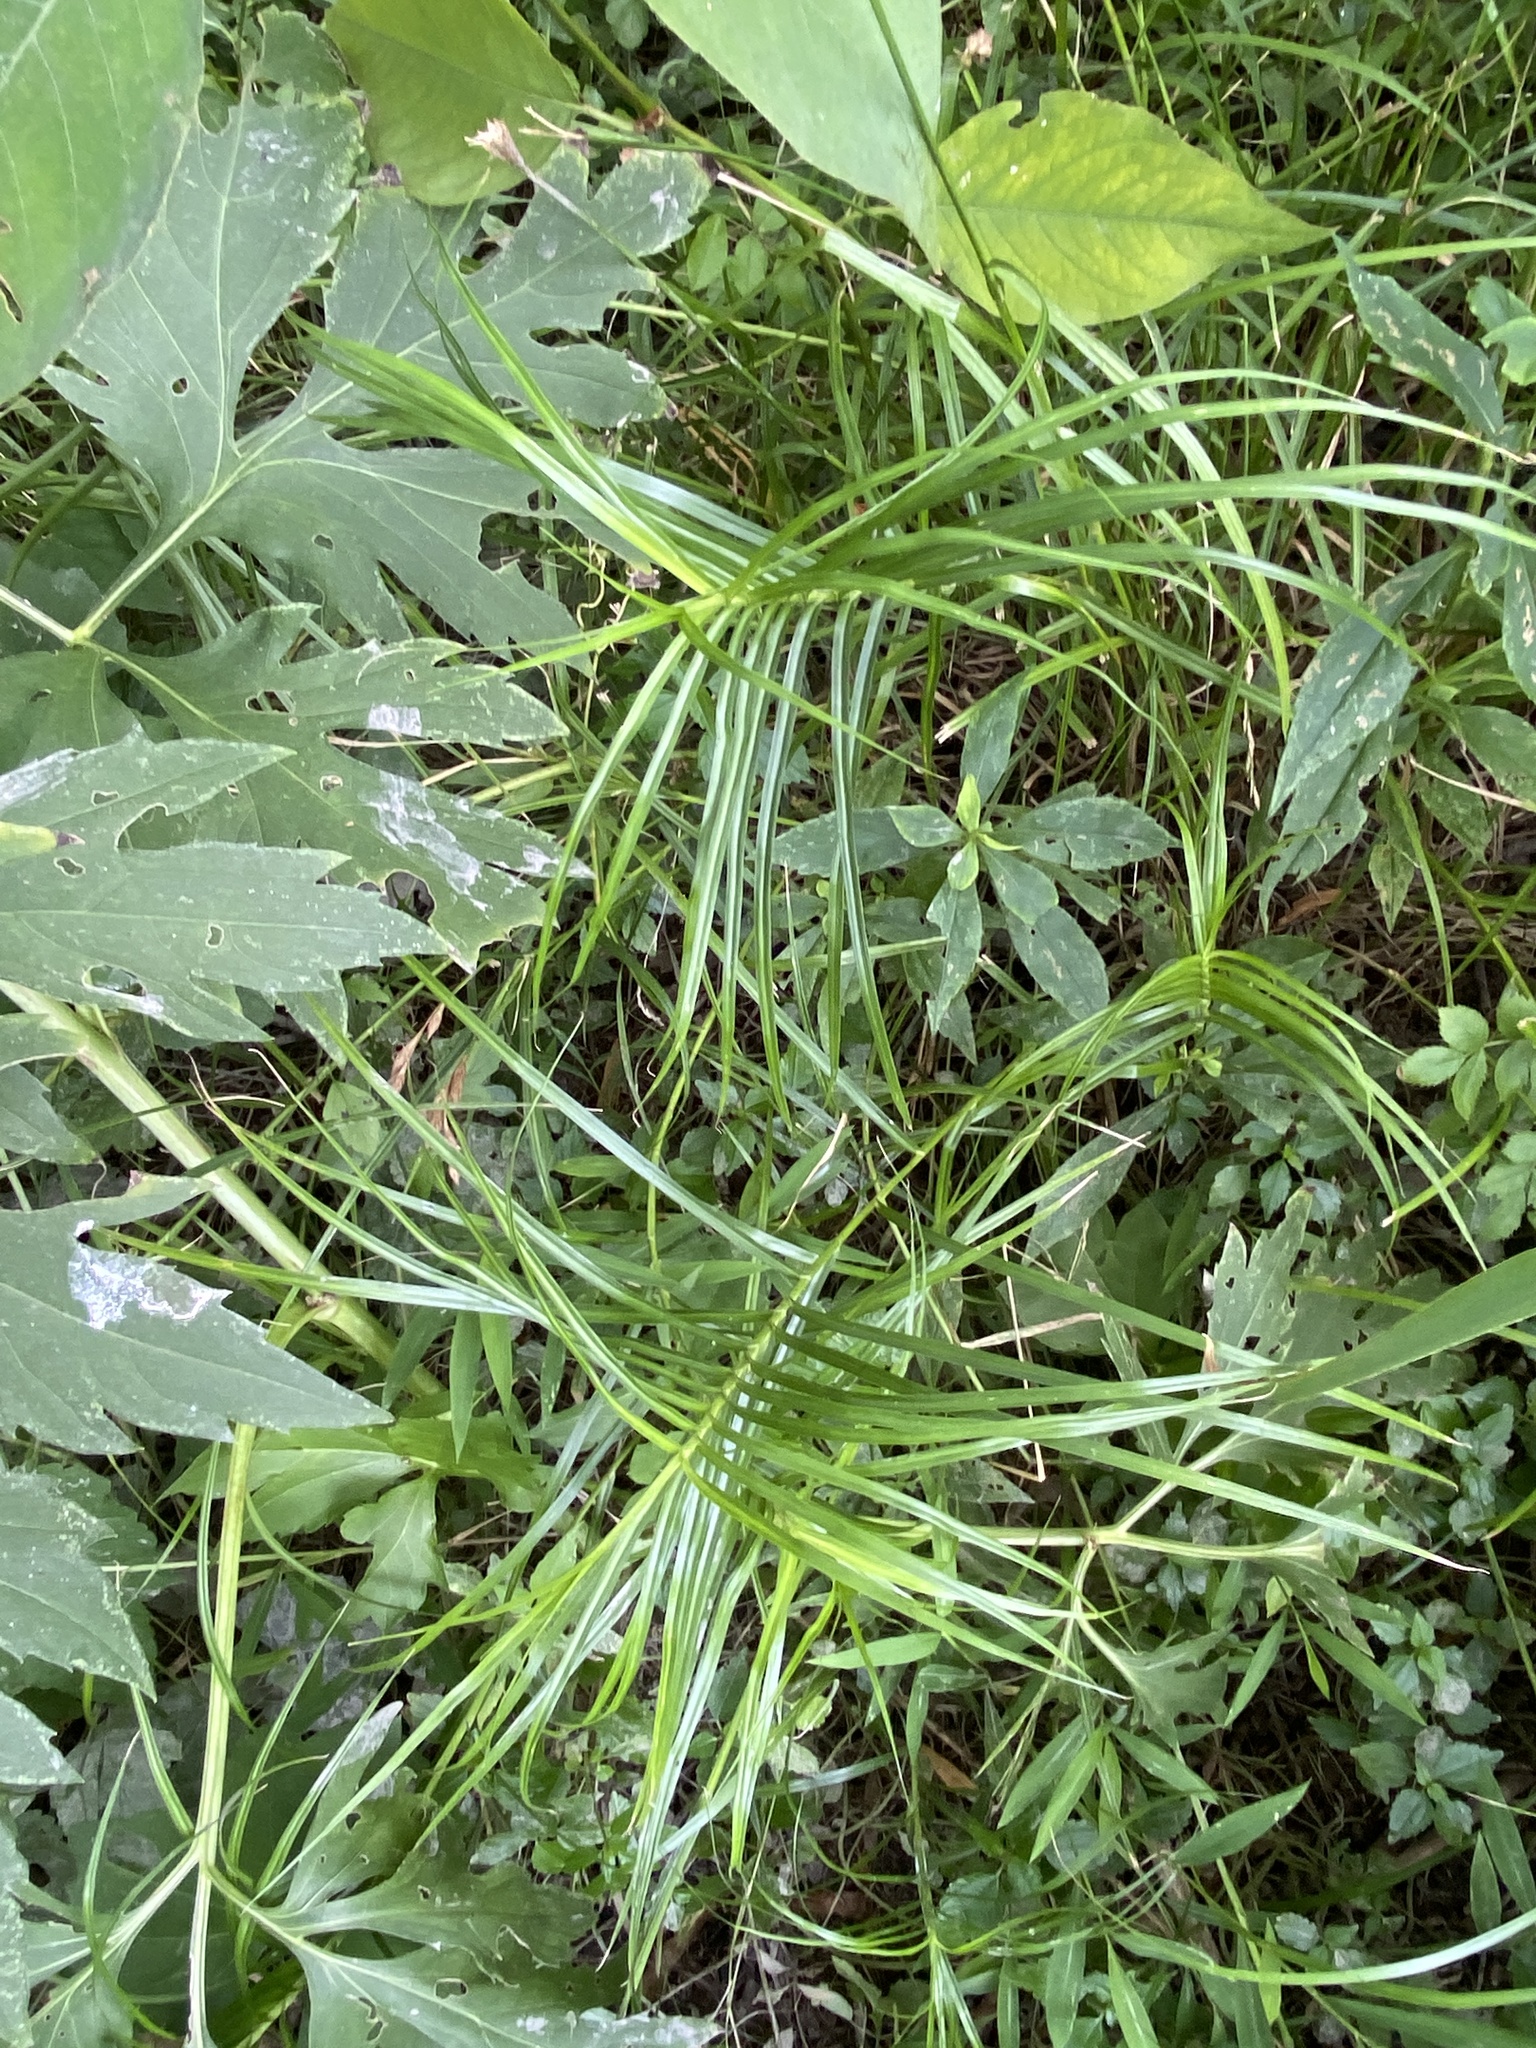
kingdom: Plantae
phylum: Tracheophyta
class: Liliopsida
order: Poales
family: Cyperaceae
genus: Dulichium
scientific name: Dulichium arundinaceum
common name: Three-way sedge
